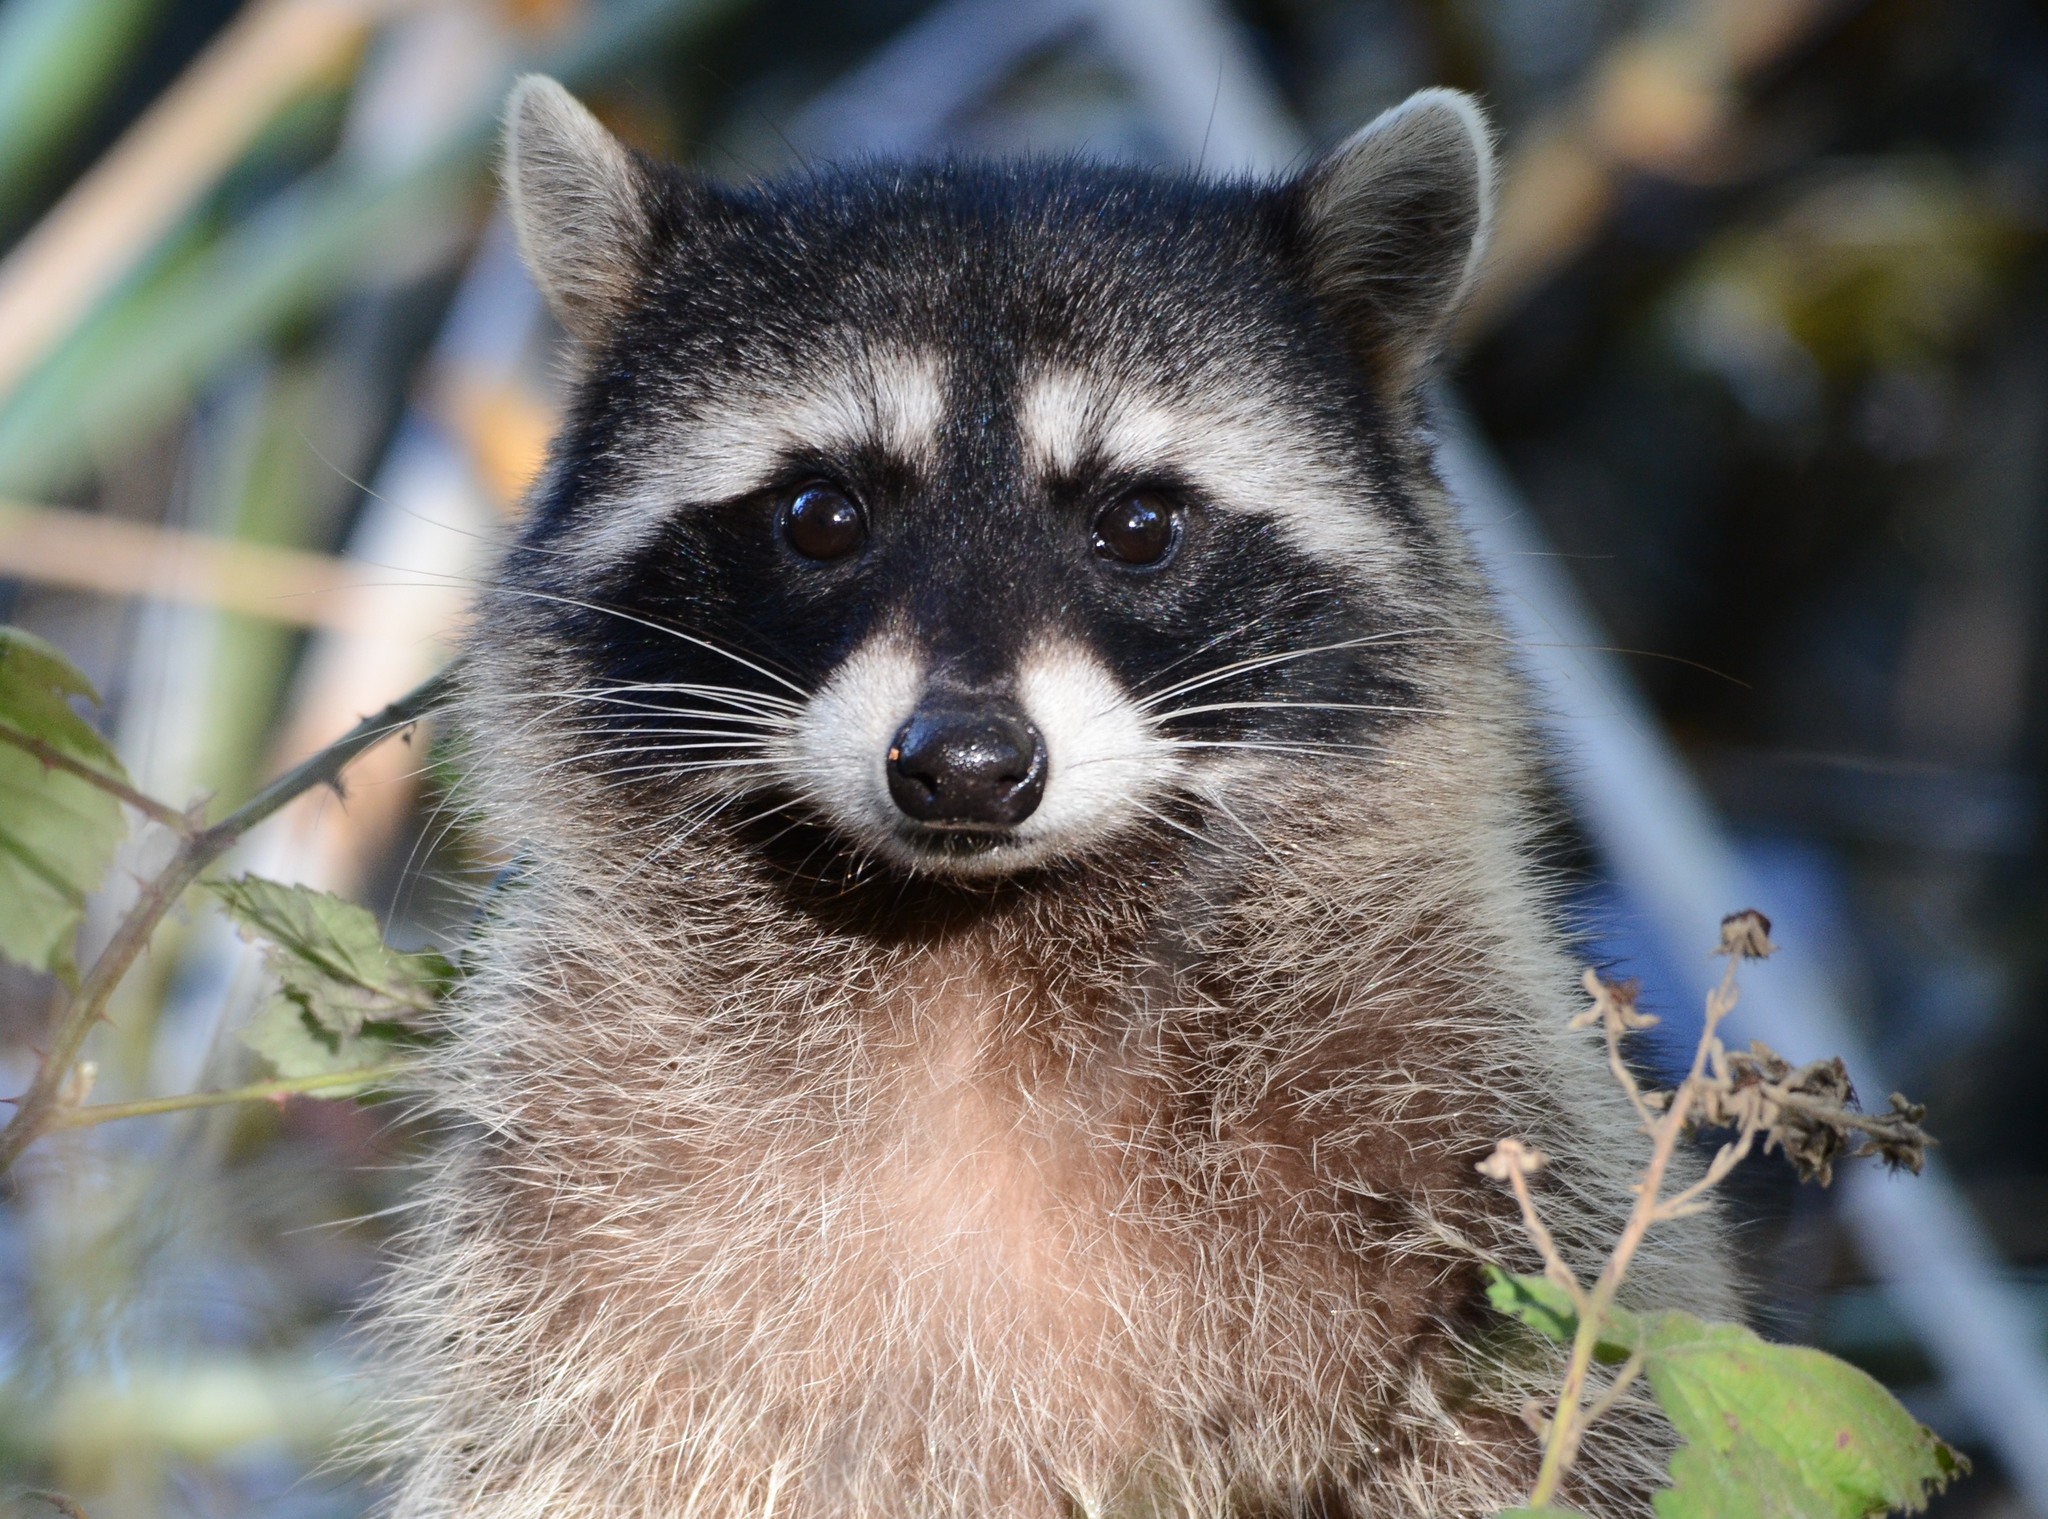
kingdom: Animalia
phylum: Chordata
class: Mammalia
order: Carnivora
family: Procyonidae
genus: Procyon
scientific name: Procyon lotor
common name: Raccoon
